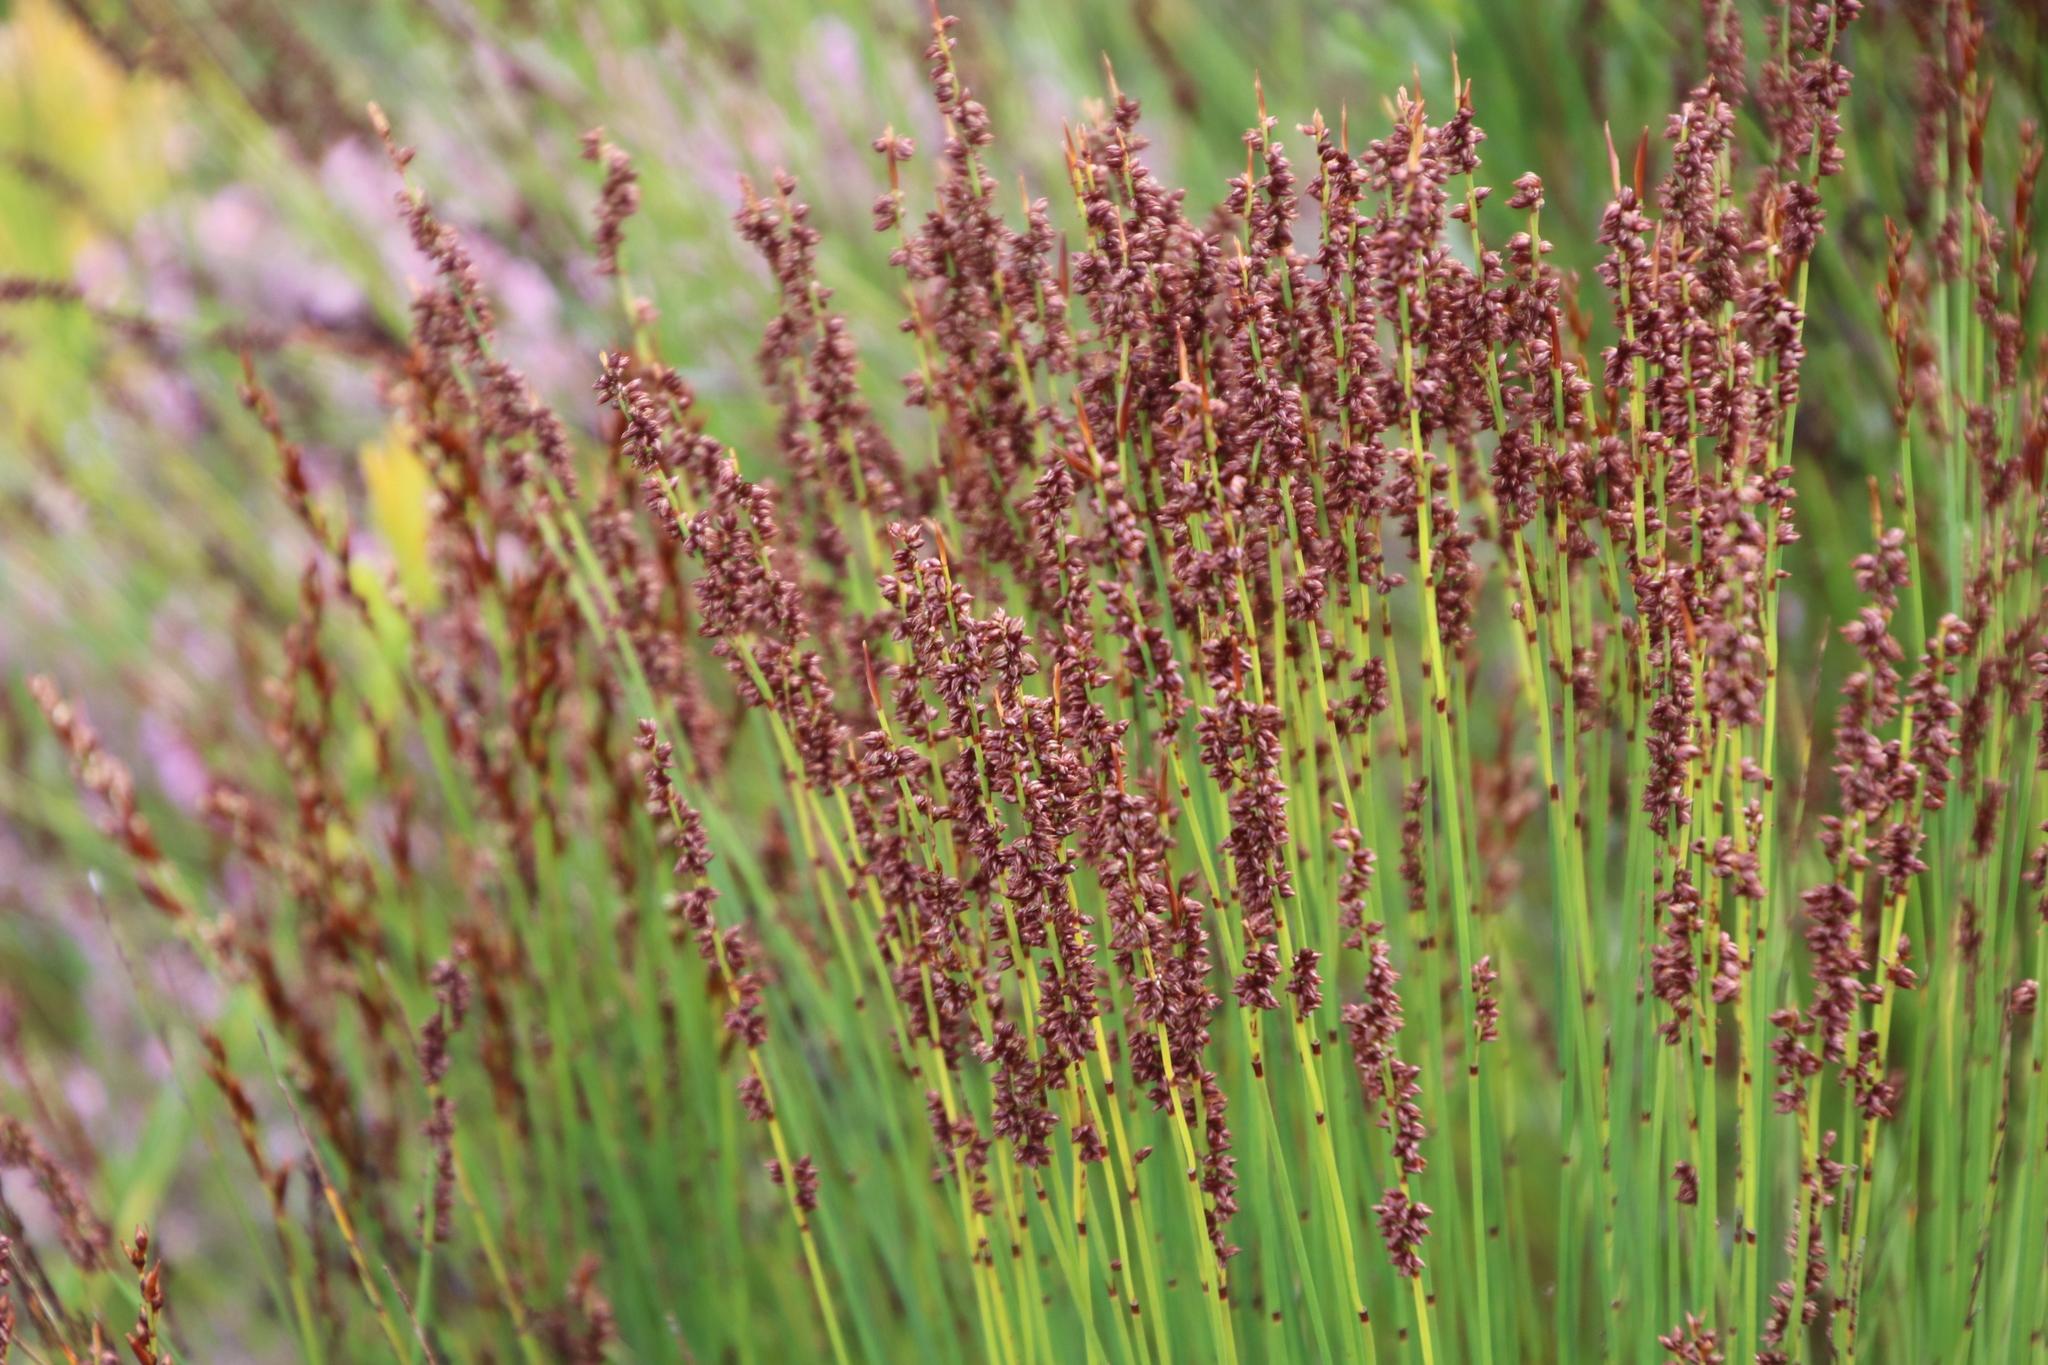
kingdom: Plantae
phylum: Tracheophyta
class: Liliopsida
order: Poales
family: Restionaceae
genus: Elegia
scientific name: Elegia hookeriana
